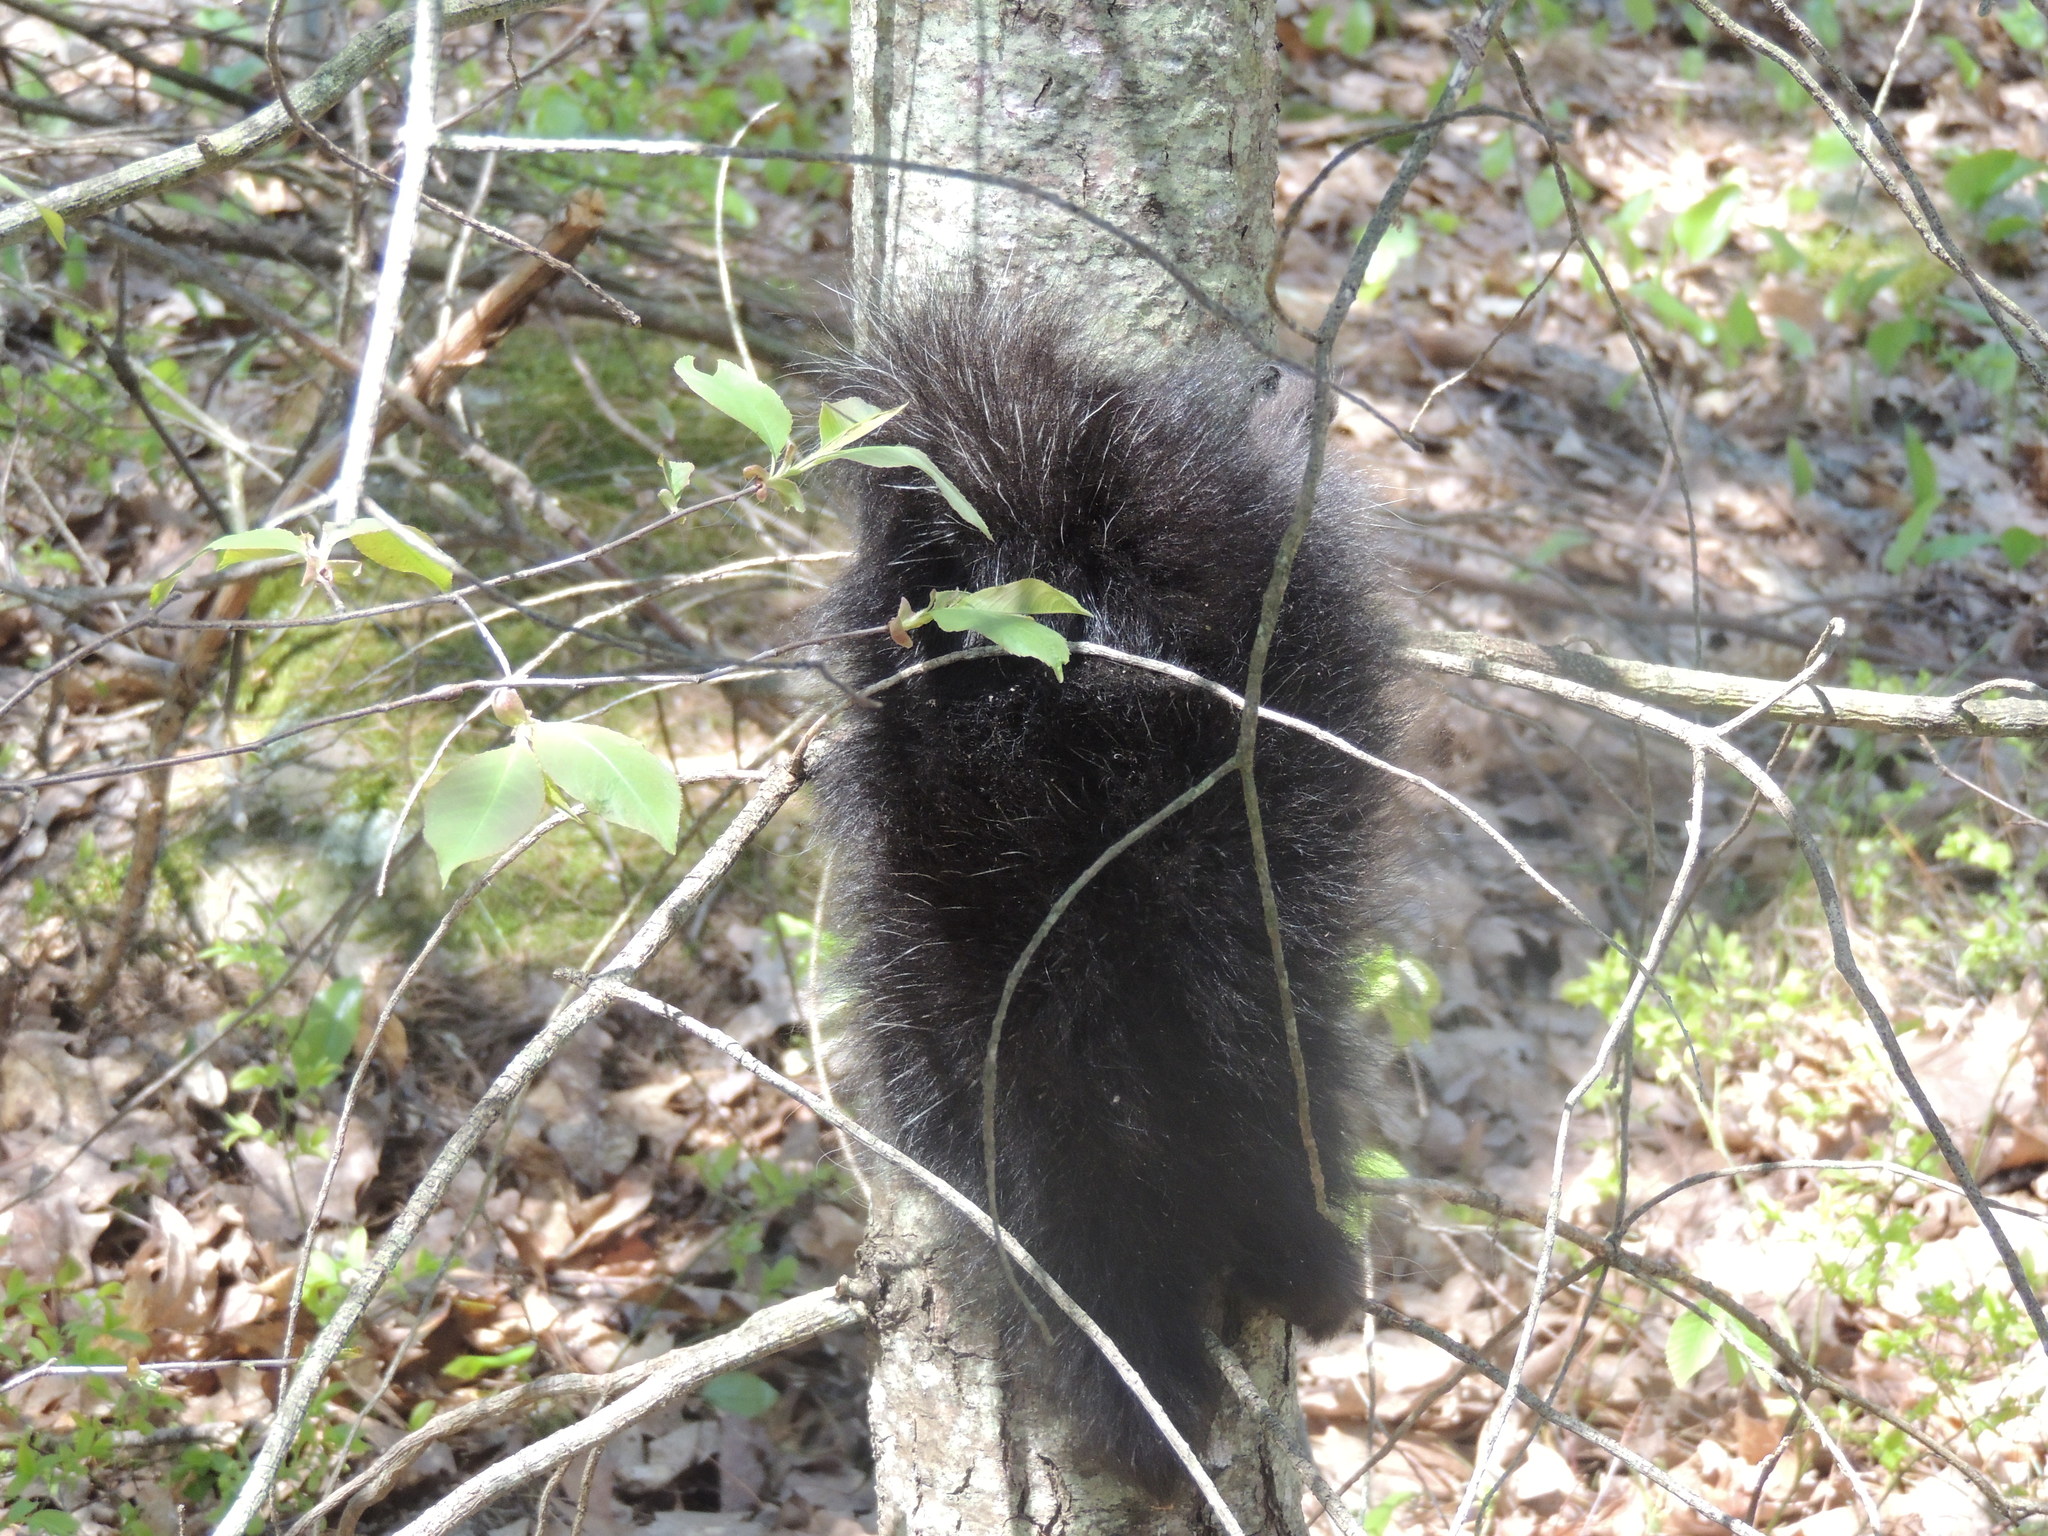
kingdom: Animalia
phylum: Chordata
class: Mammalia
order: Rodentia
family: Erethizontidae
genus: Erethizon
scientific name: Erethizon dorsatus
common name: North american porcupine
